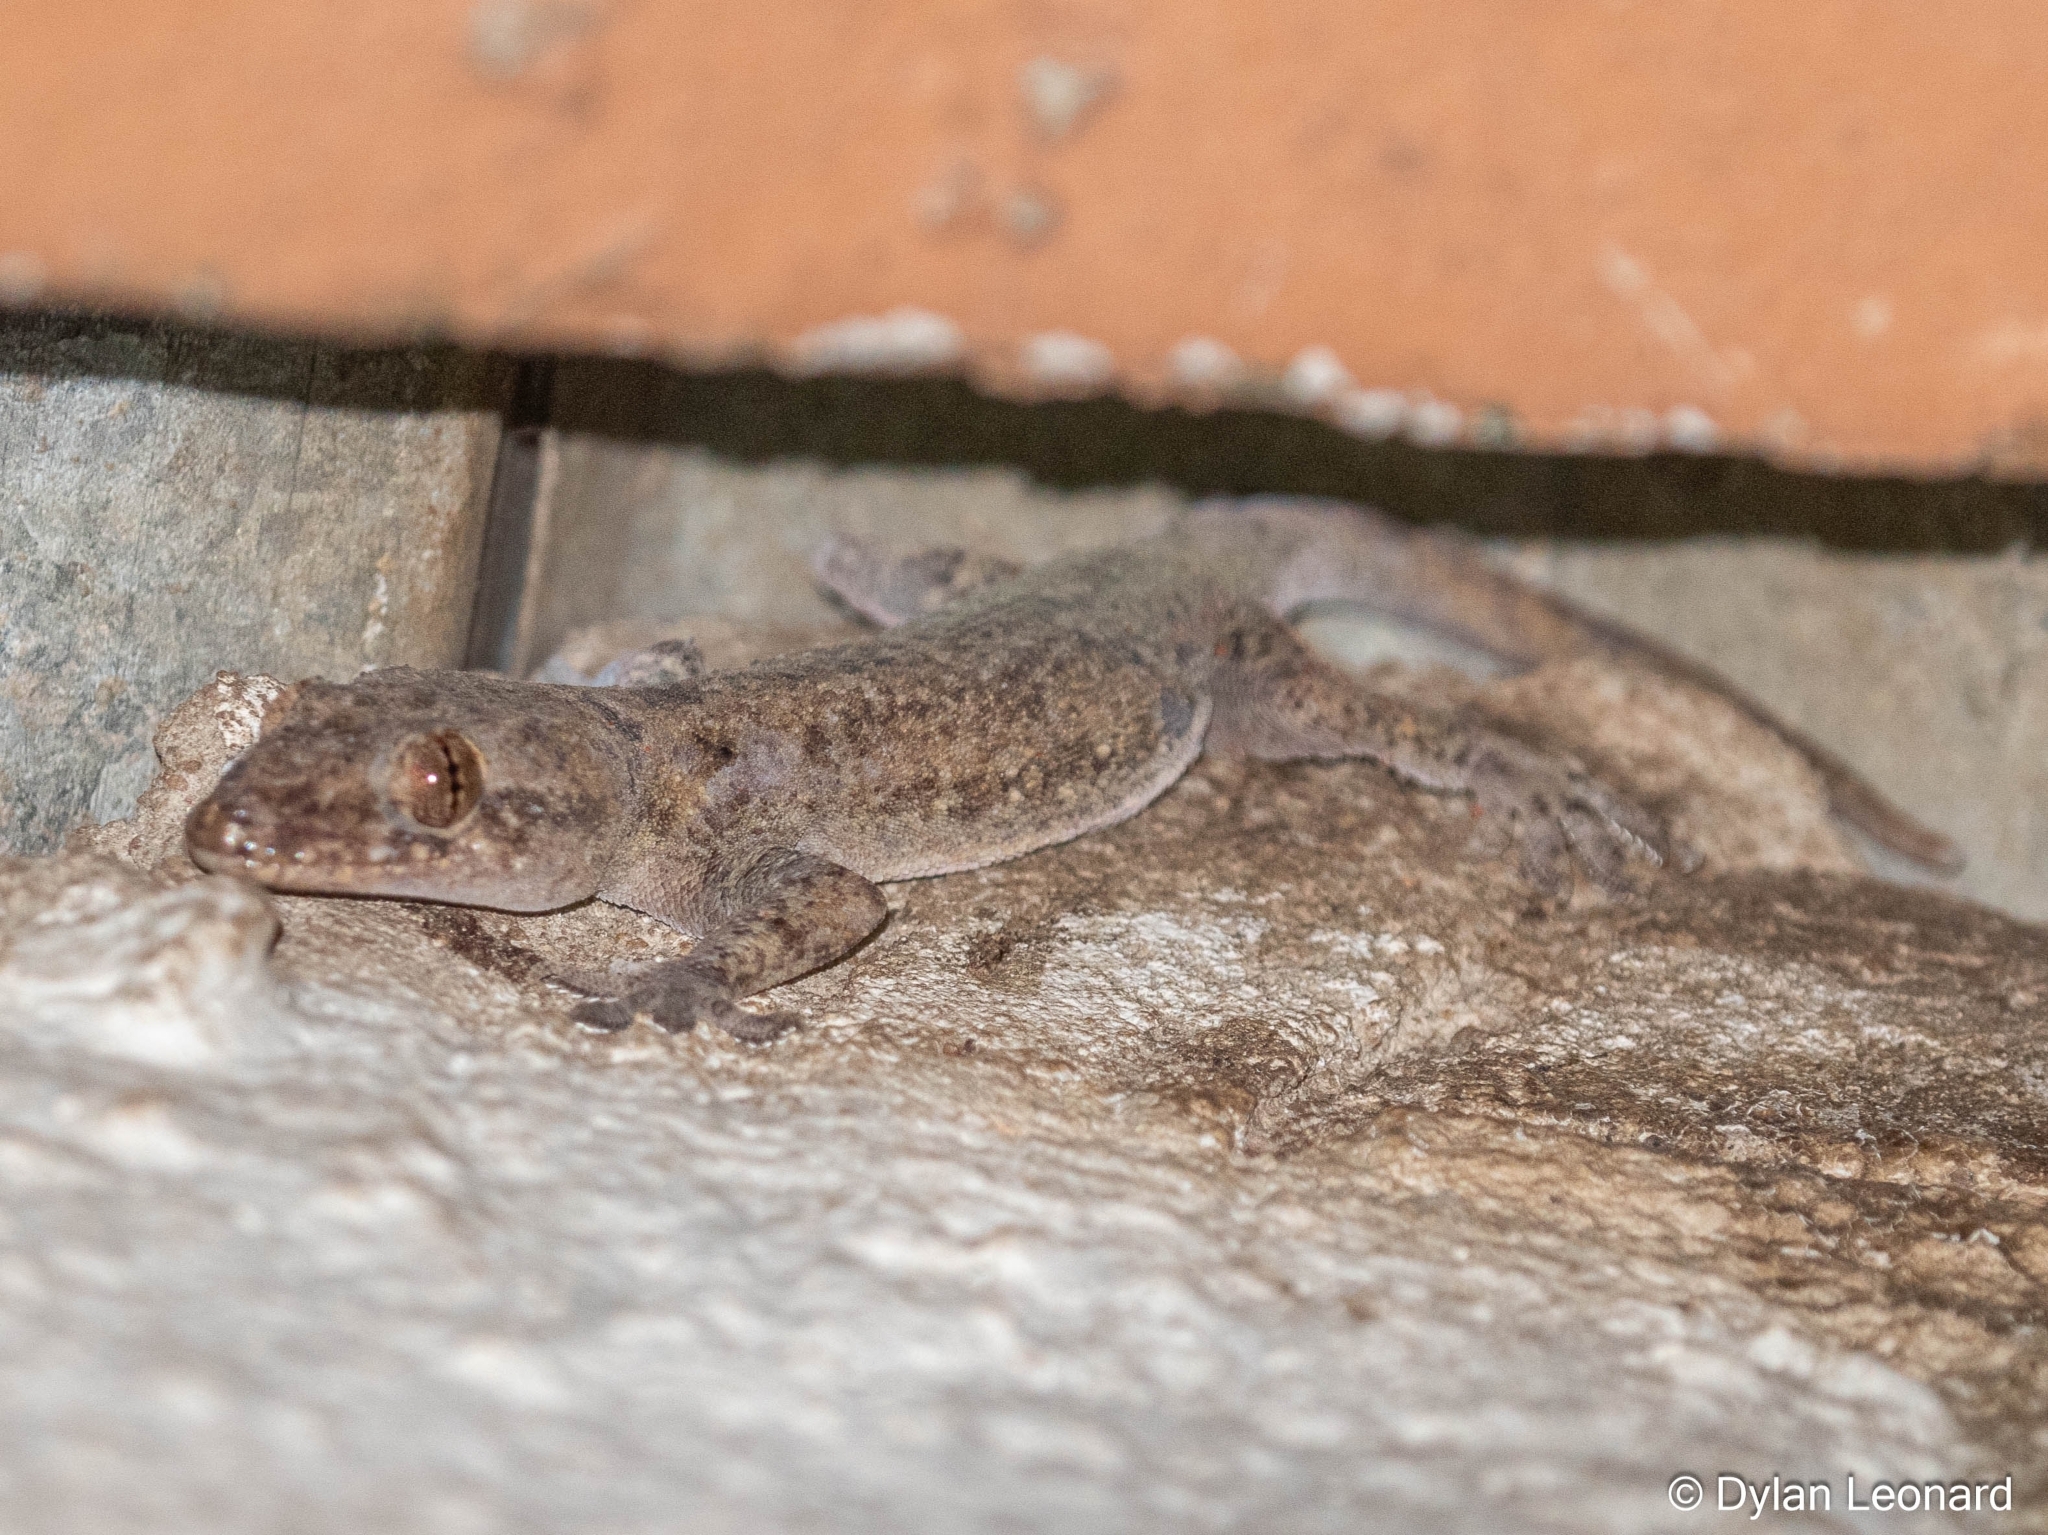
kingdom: Animalia
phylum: Chordata
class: Squamata
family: Gekkonidae
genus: Hemidactylus
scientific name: Hemidactylus mabouia
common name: House gecko
